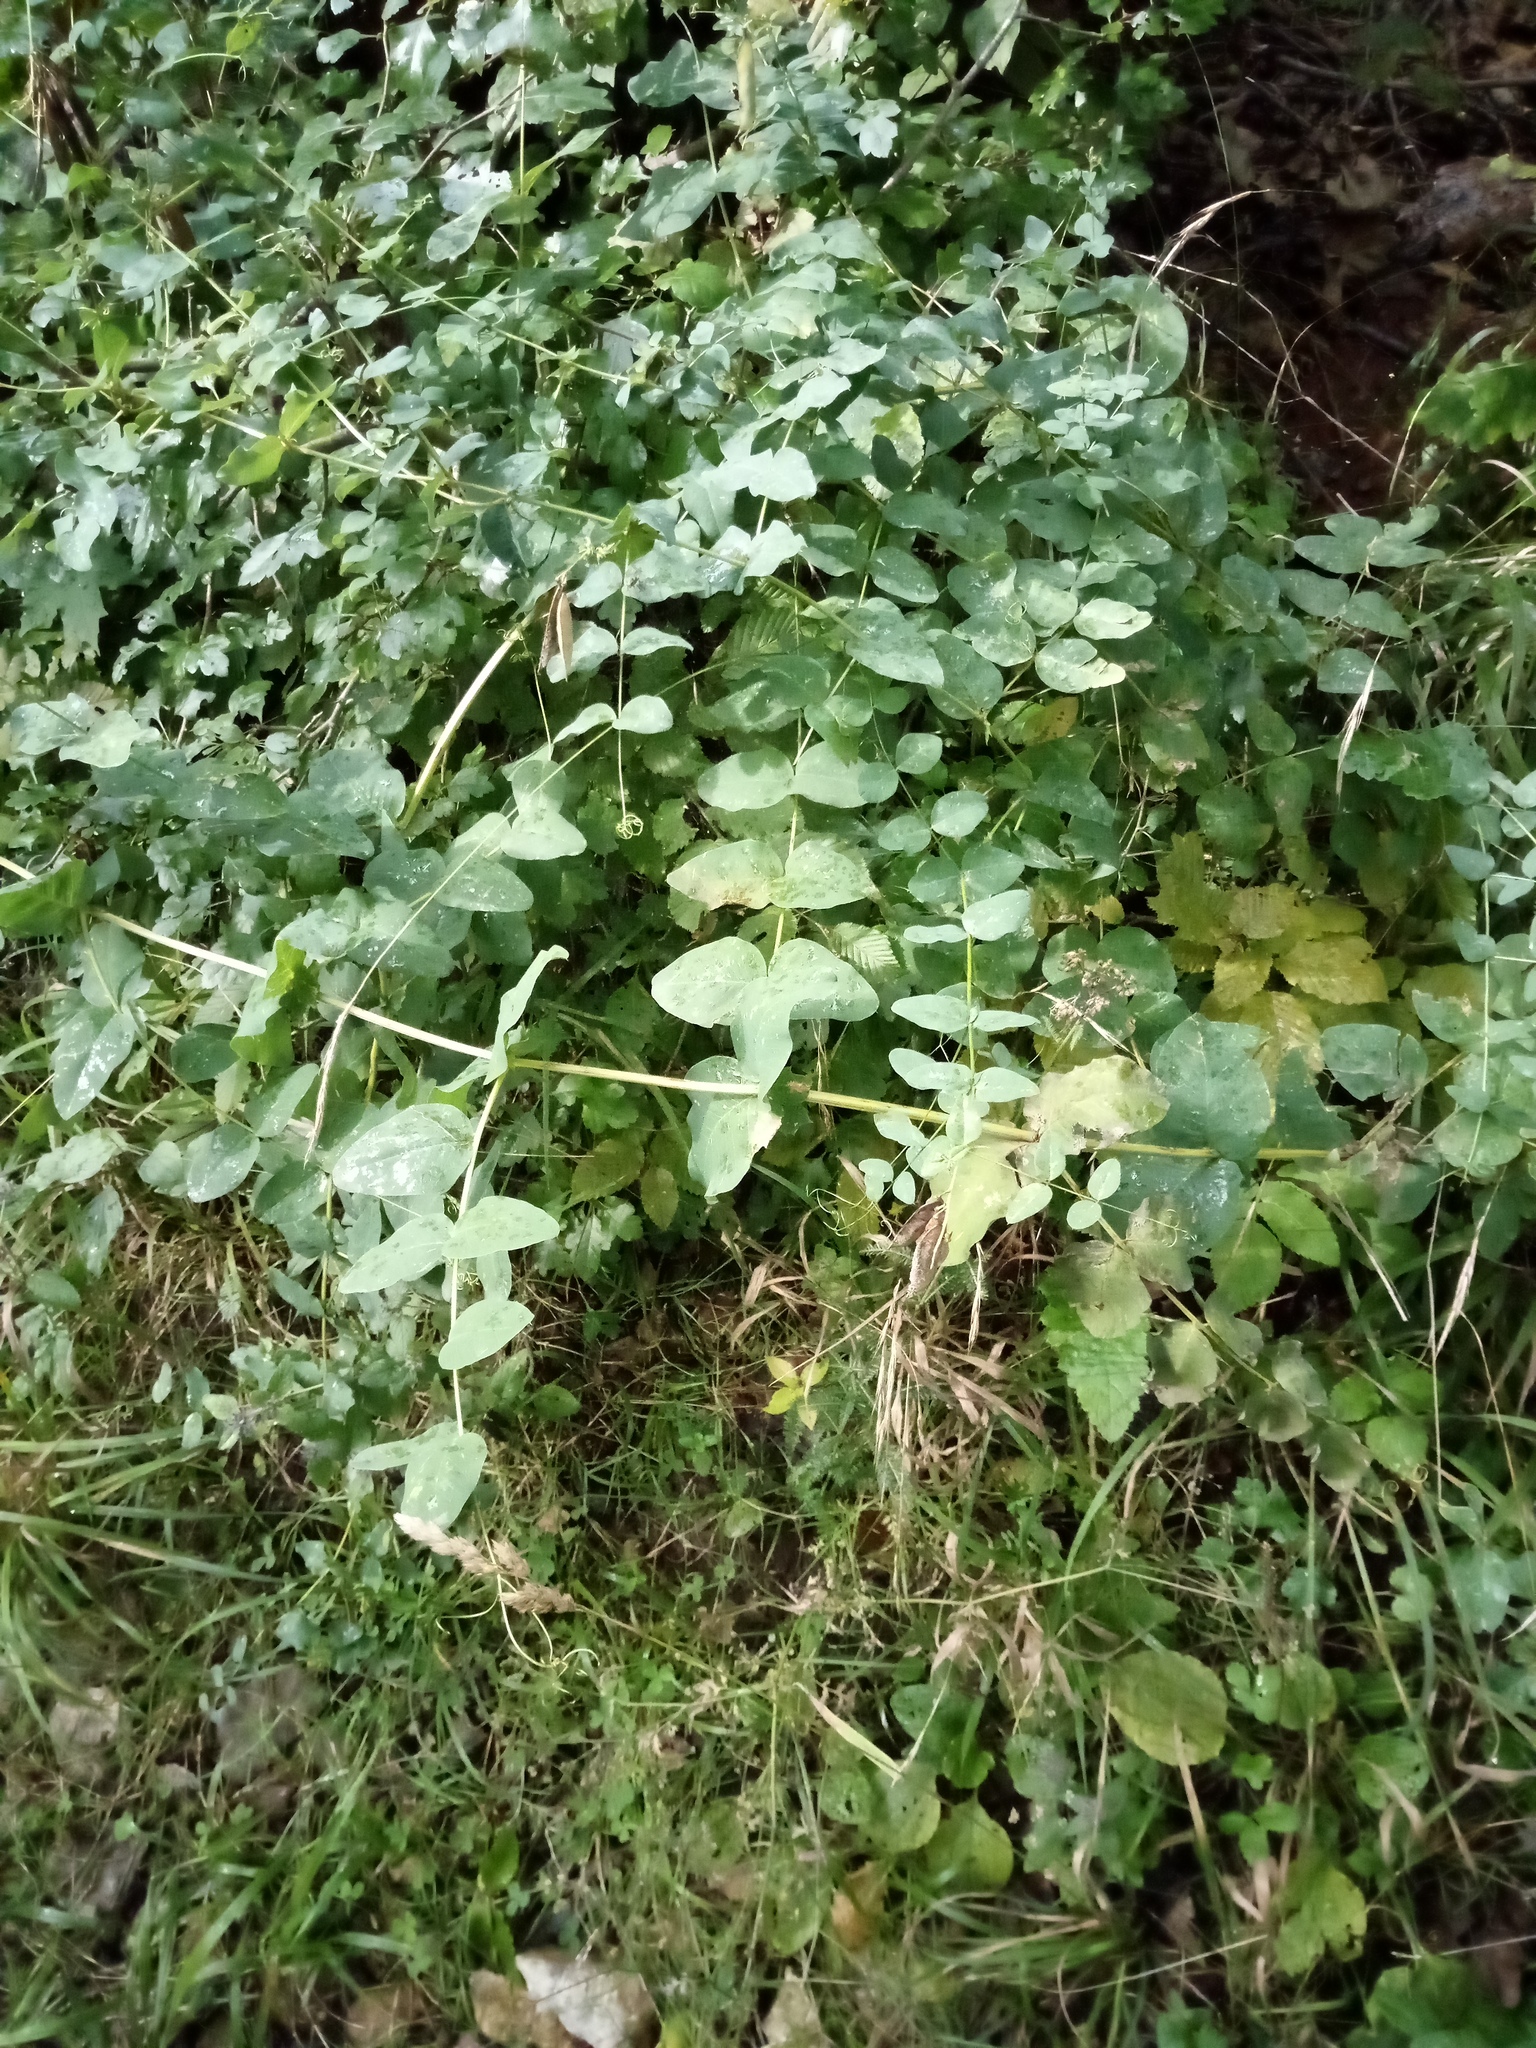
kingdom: Plantae
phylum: Tracheophyta
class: Magnoliopsida
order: Fabales
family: Fabaceae
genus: Vicia
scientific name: Vicia pisiformis
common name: Pale-flower vetch
